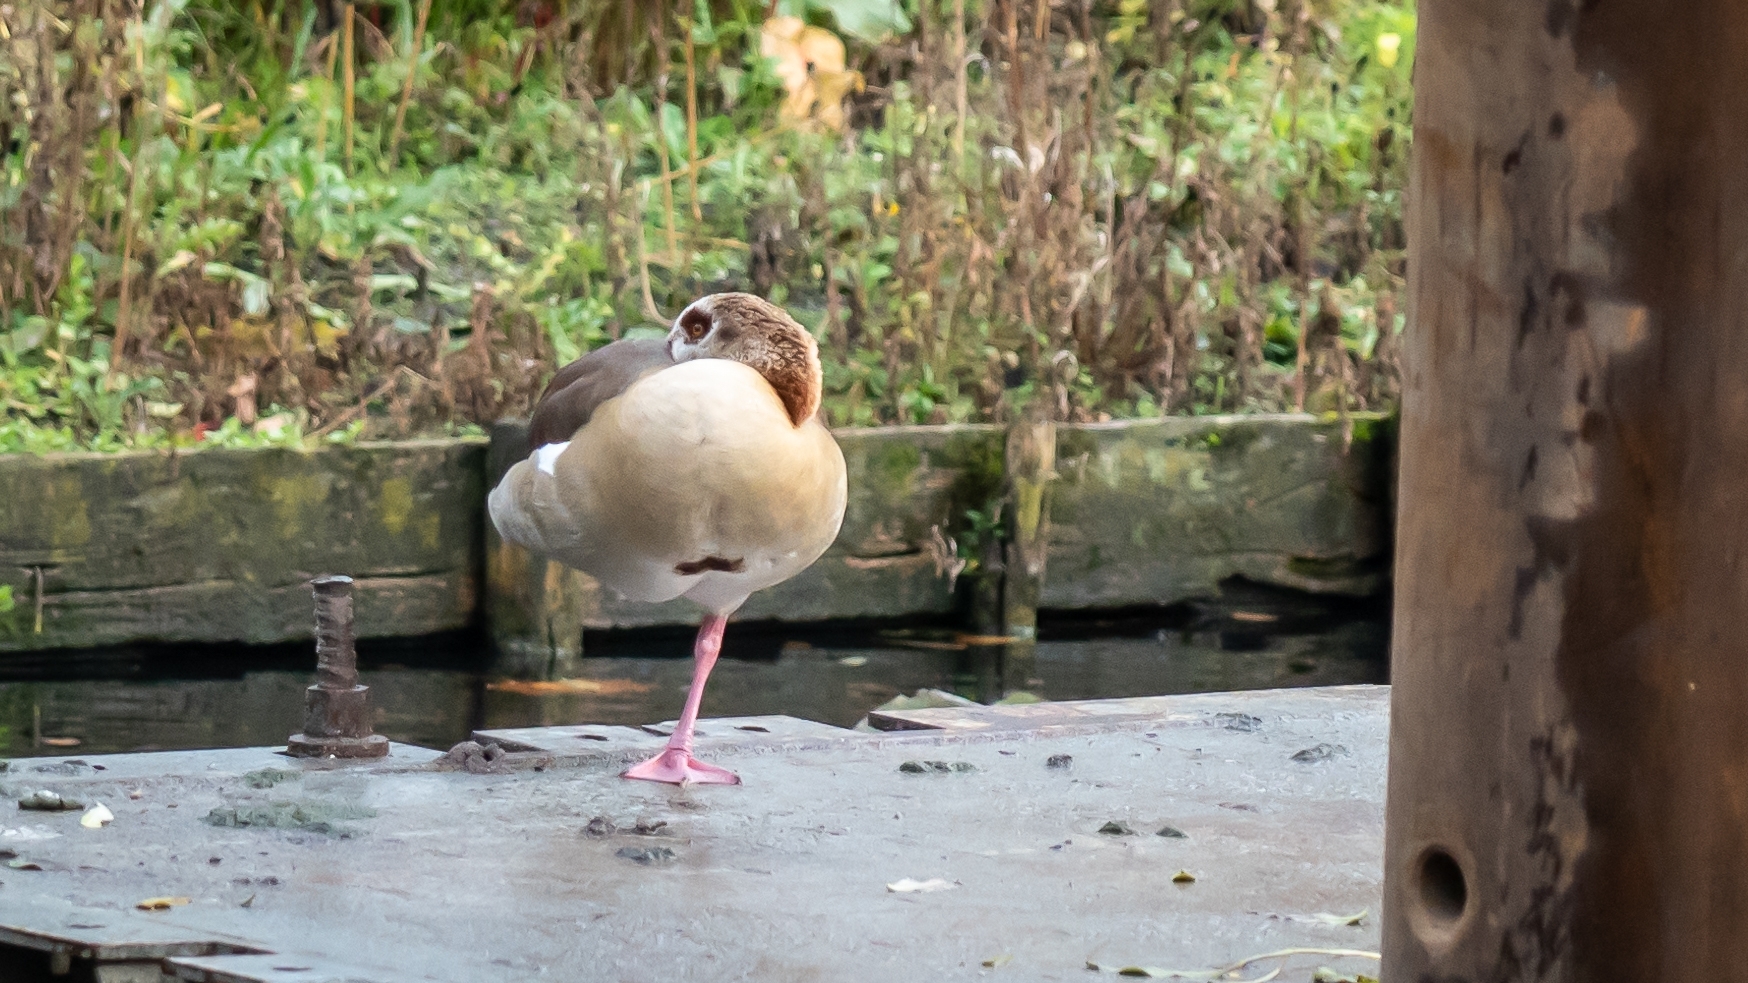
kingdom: Animalia
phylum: Chordata
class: Aves
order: Anseriformes
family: Anatidae
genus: Alopochen
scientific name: Alopochen aegyptiaca
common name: Egyptian goose
